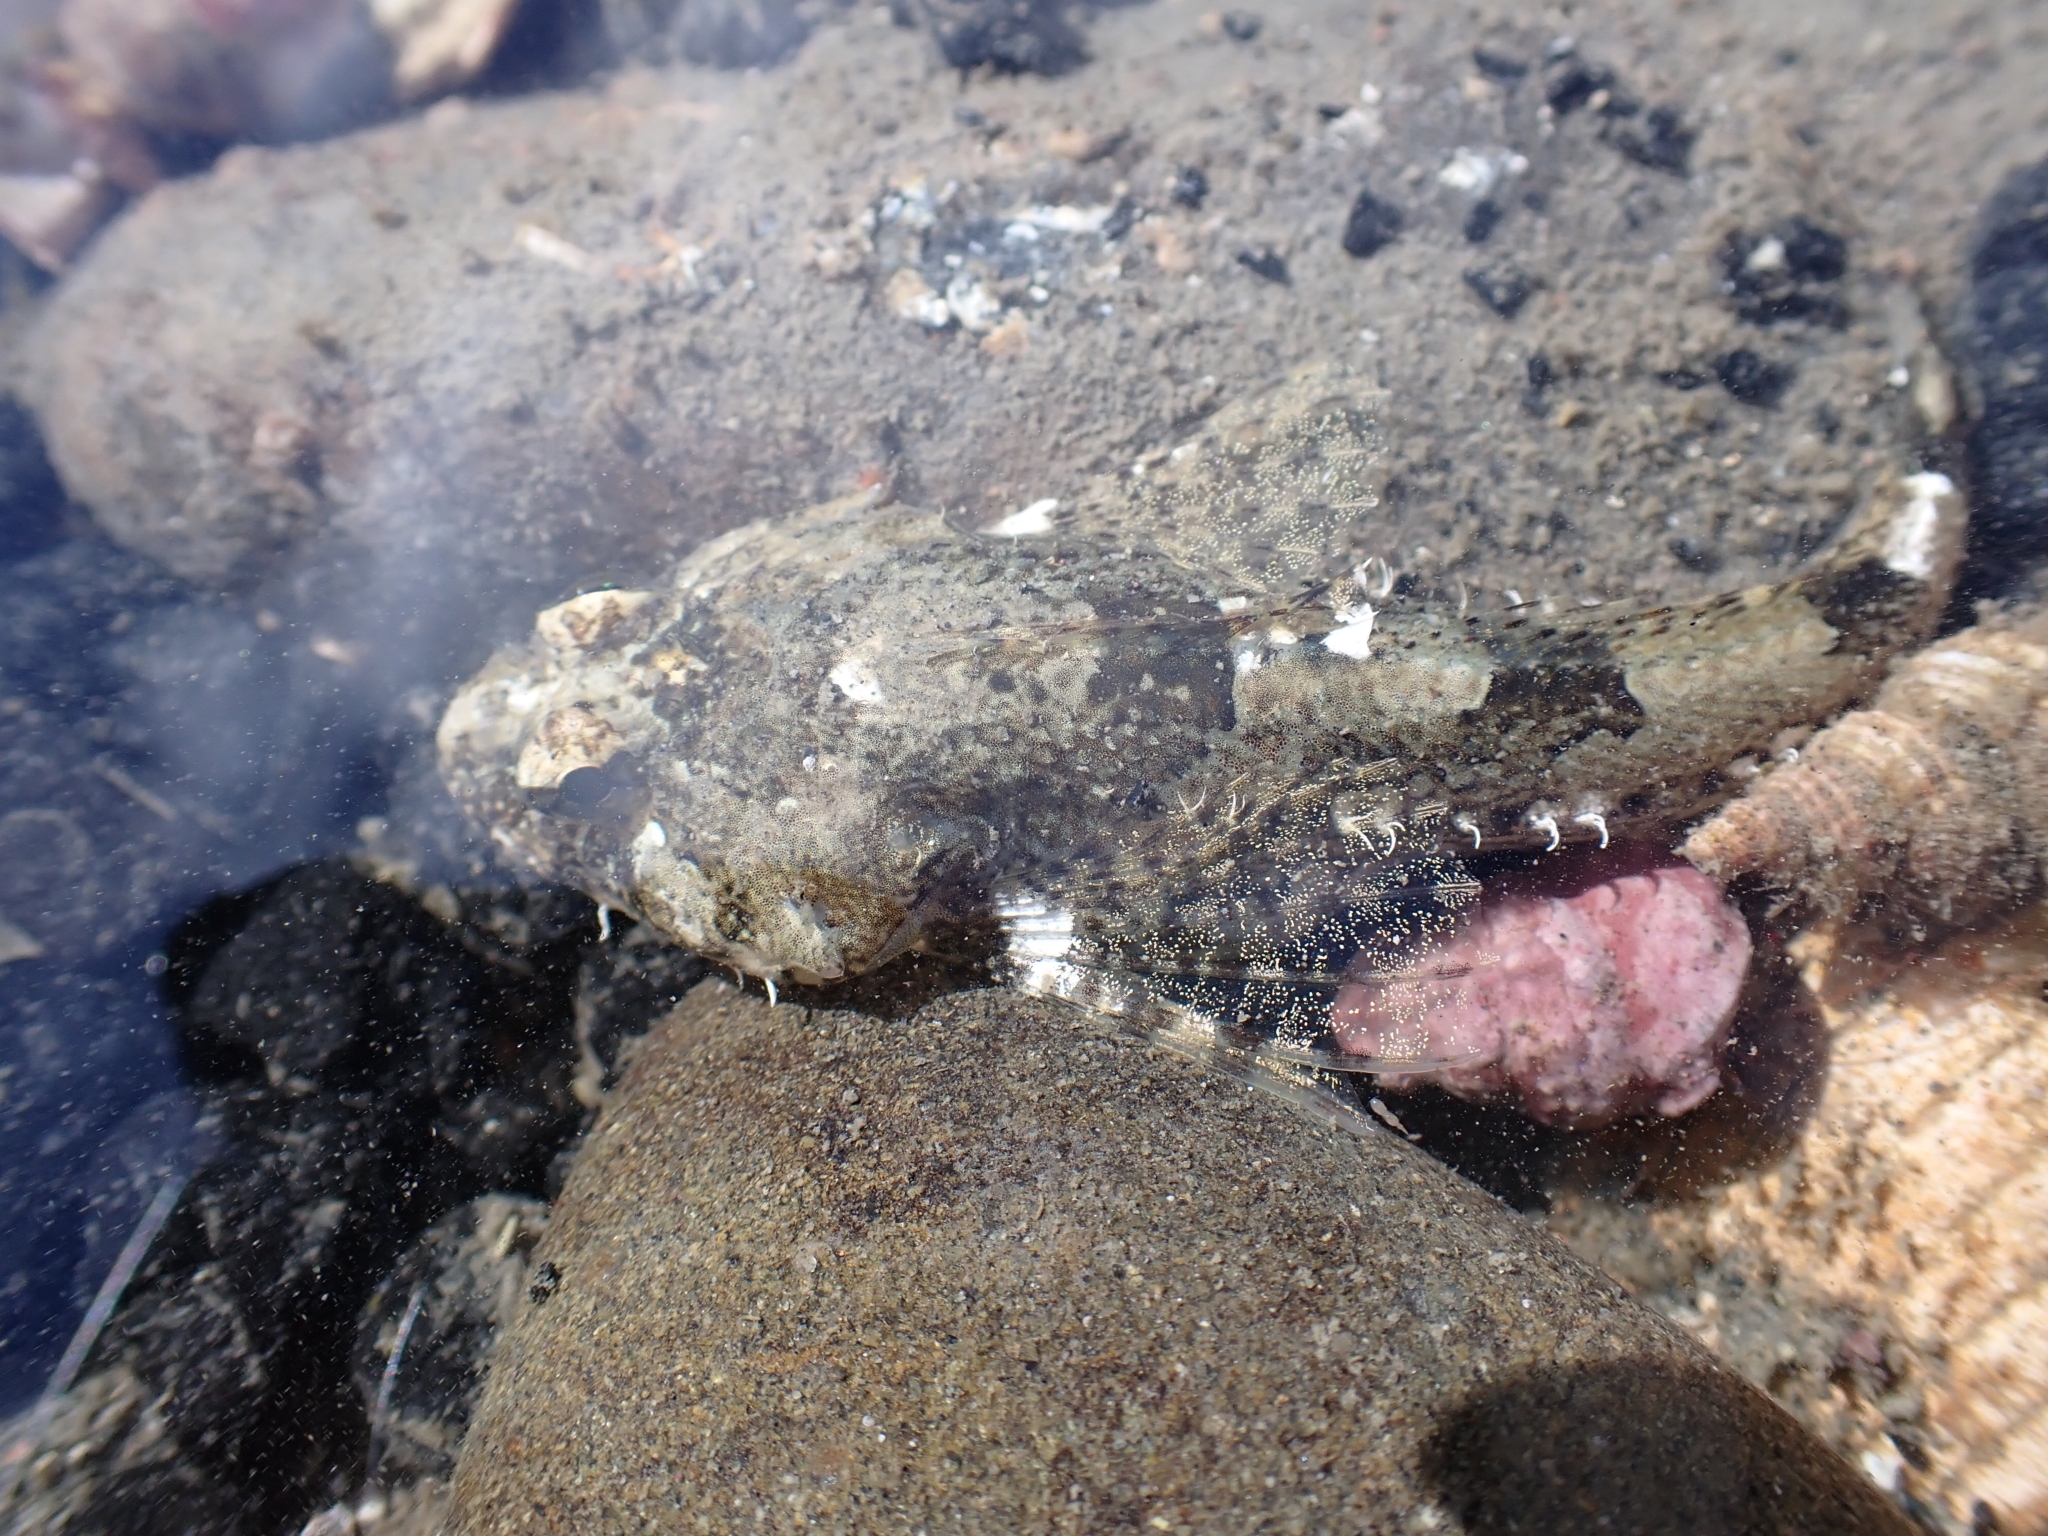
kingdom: Animalia
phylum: Chordata
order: Scorpaeniformes
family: Cottidae
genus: Artedius
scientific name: Artedius fenestralis
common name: Padded sculpin
